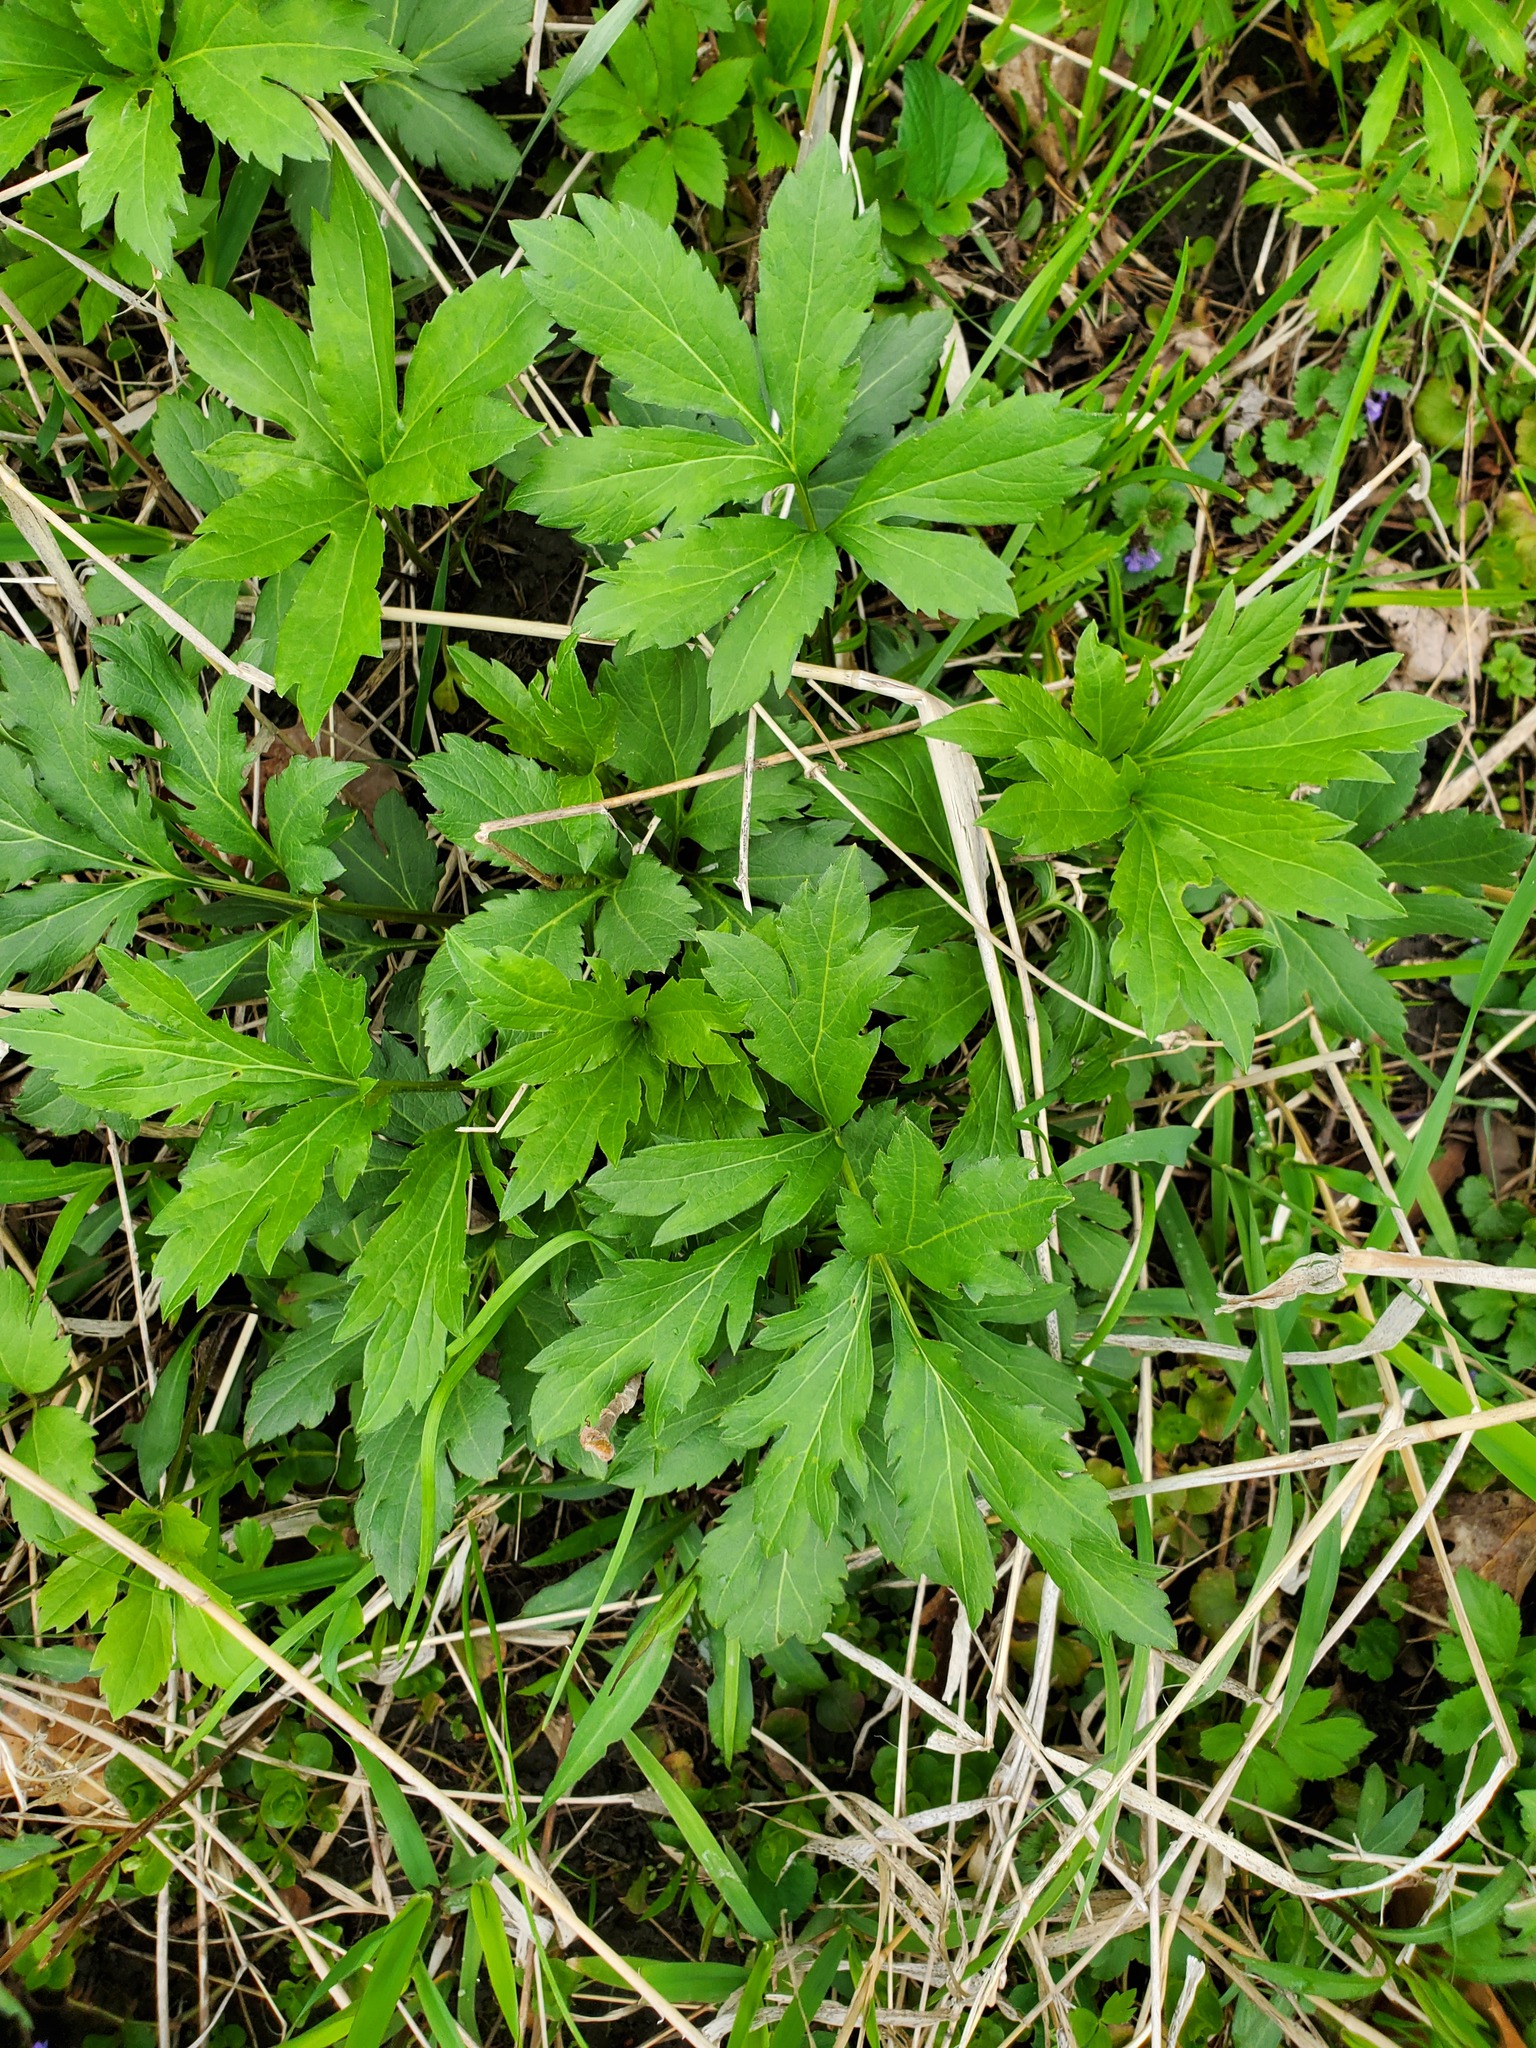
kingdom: Plantae
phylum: Tracheophyta
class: Magnoliopsida
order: Asterales
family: Asteraceae
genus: Rudbeckia
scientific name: Rudbeckia laciniata
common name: Coneflower
